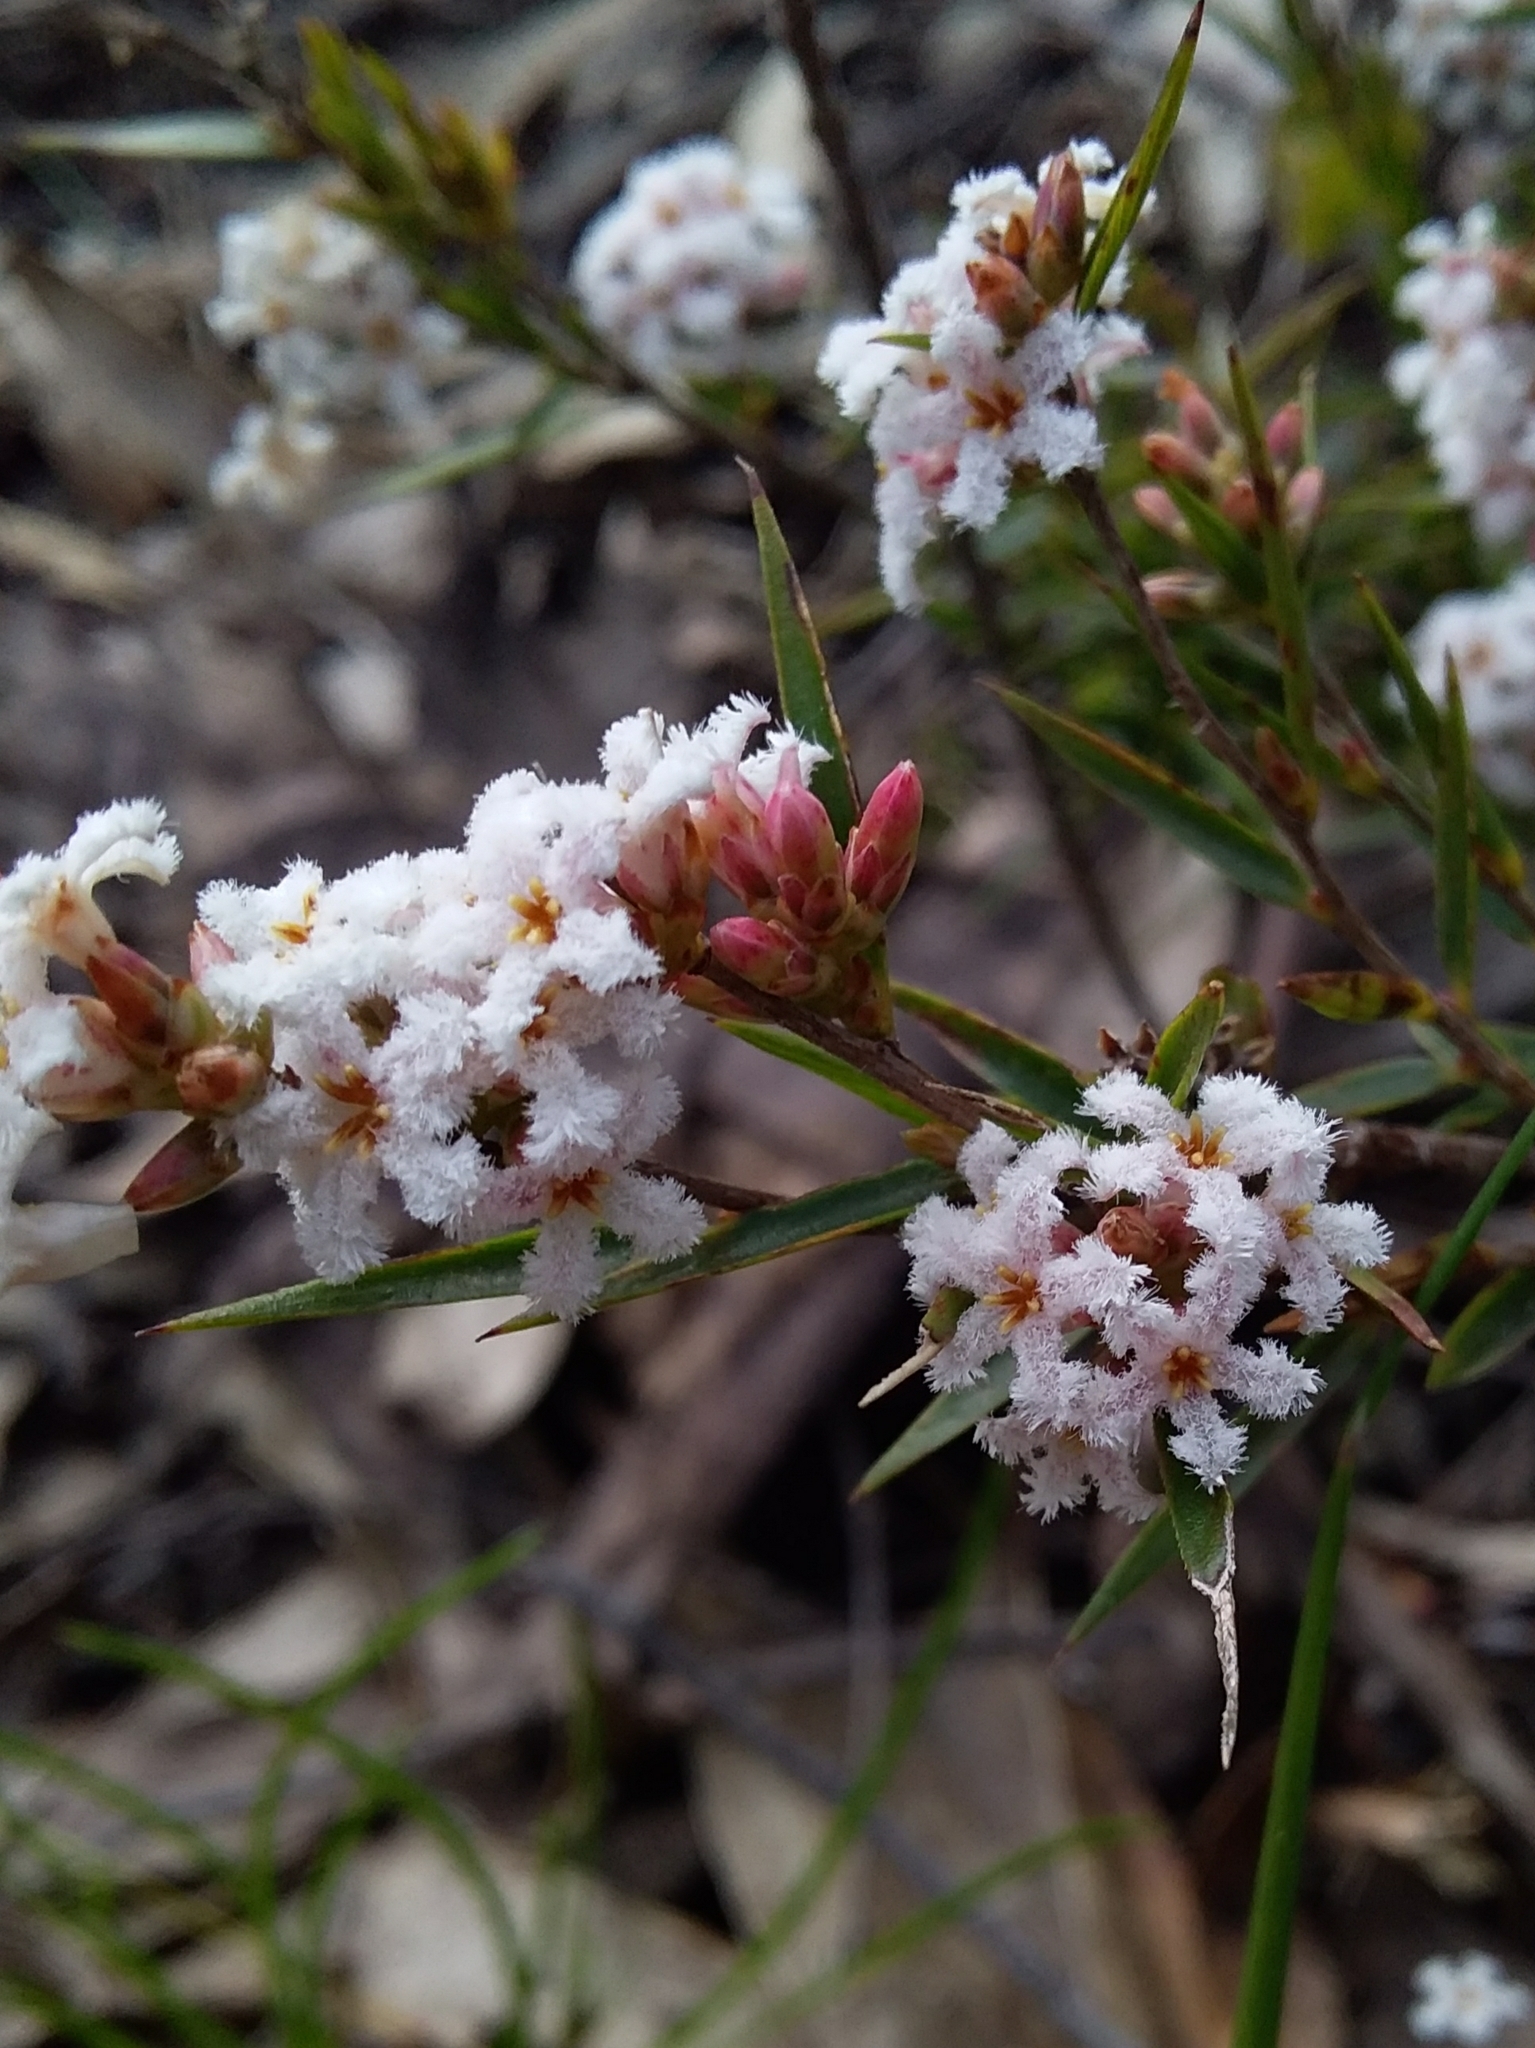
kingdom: Plantae
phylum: Tracheophyta
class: Magnoliopsida
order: Ericales
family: Ericaceae
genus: Leucopogon
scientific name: Leucopogon virgatus
